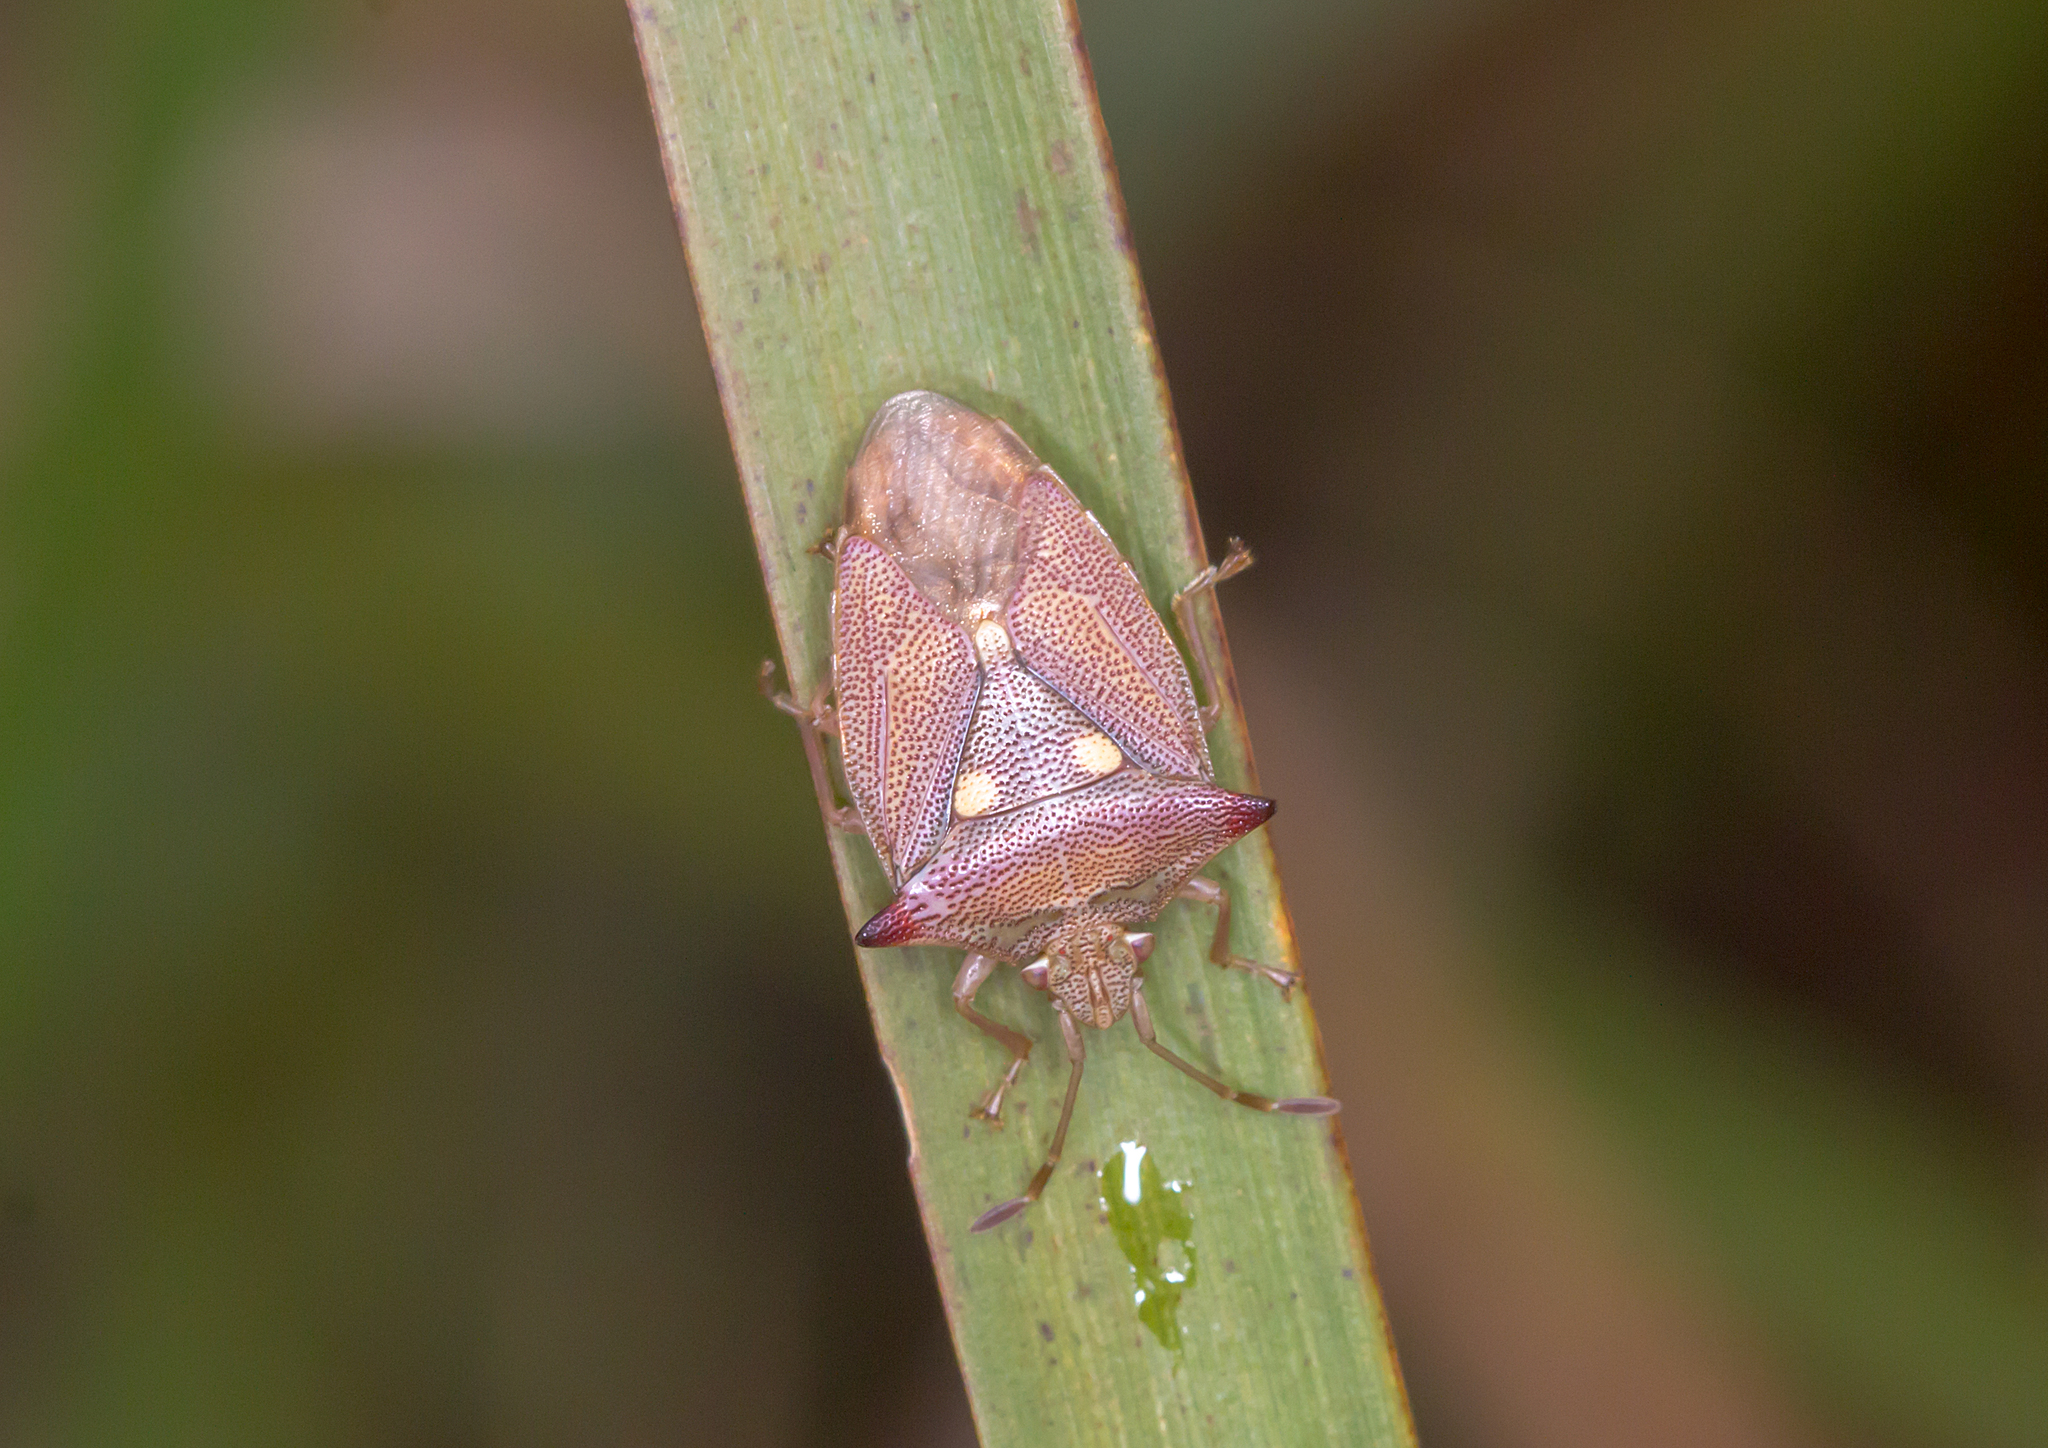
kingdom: Animalia
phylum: Arthropoda
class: Insecta
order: Hemiptera
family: Acanthosomatidae
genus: Hiarchas
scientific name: Hiarchas angularis
